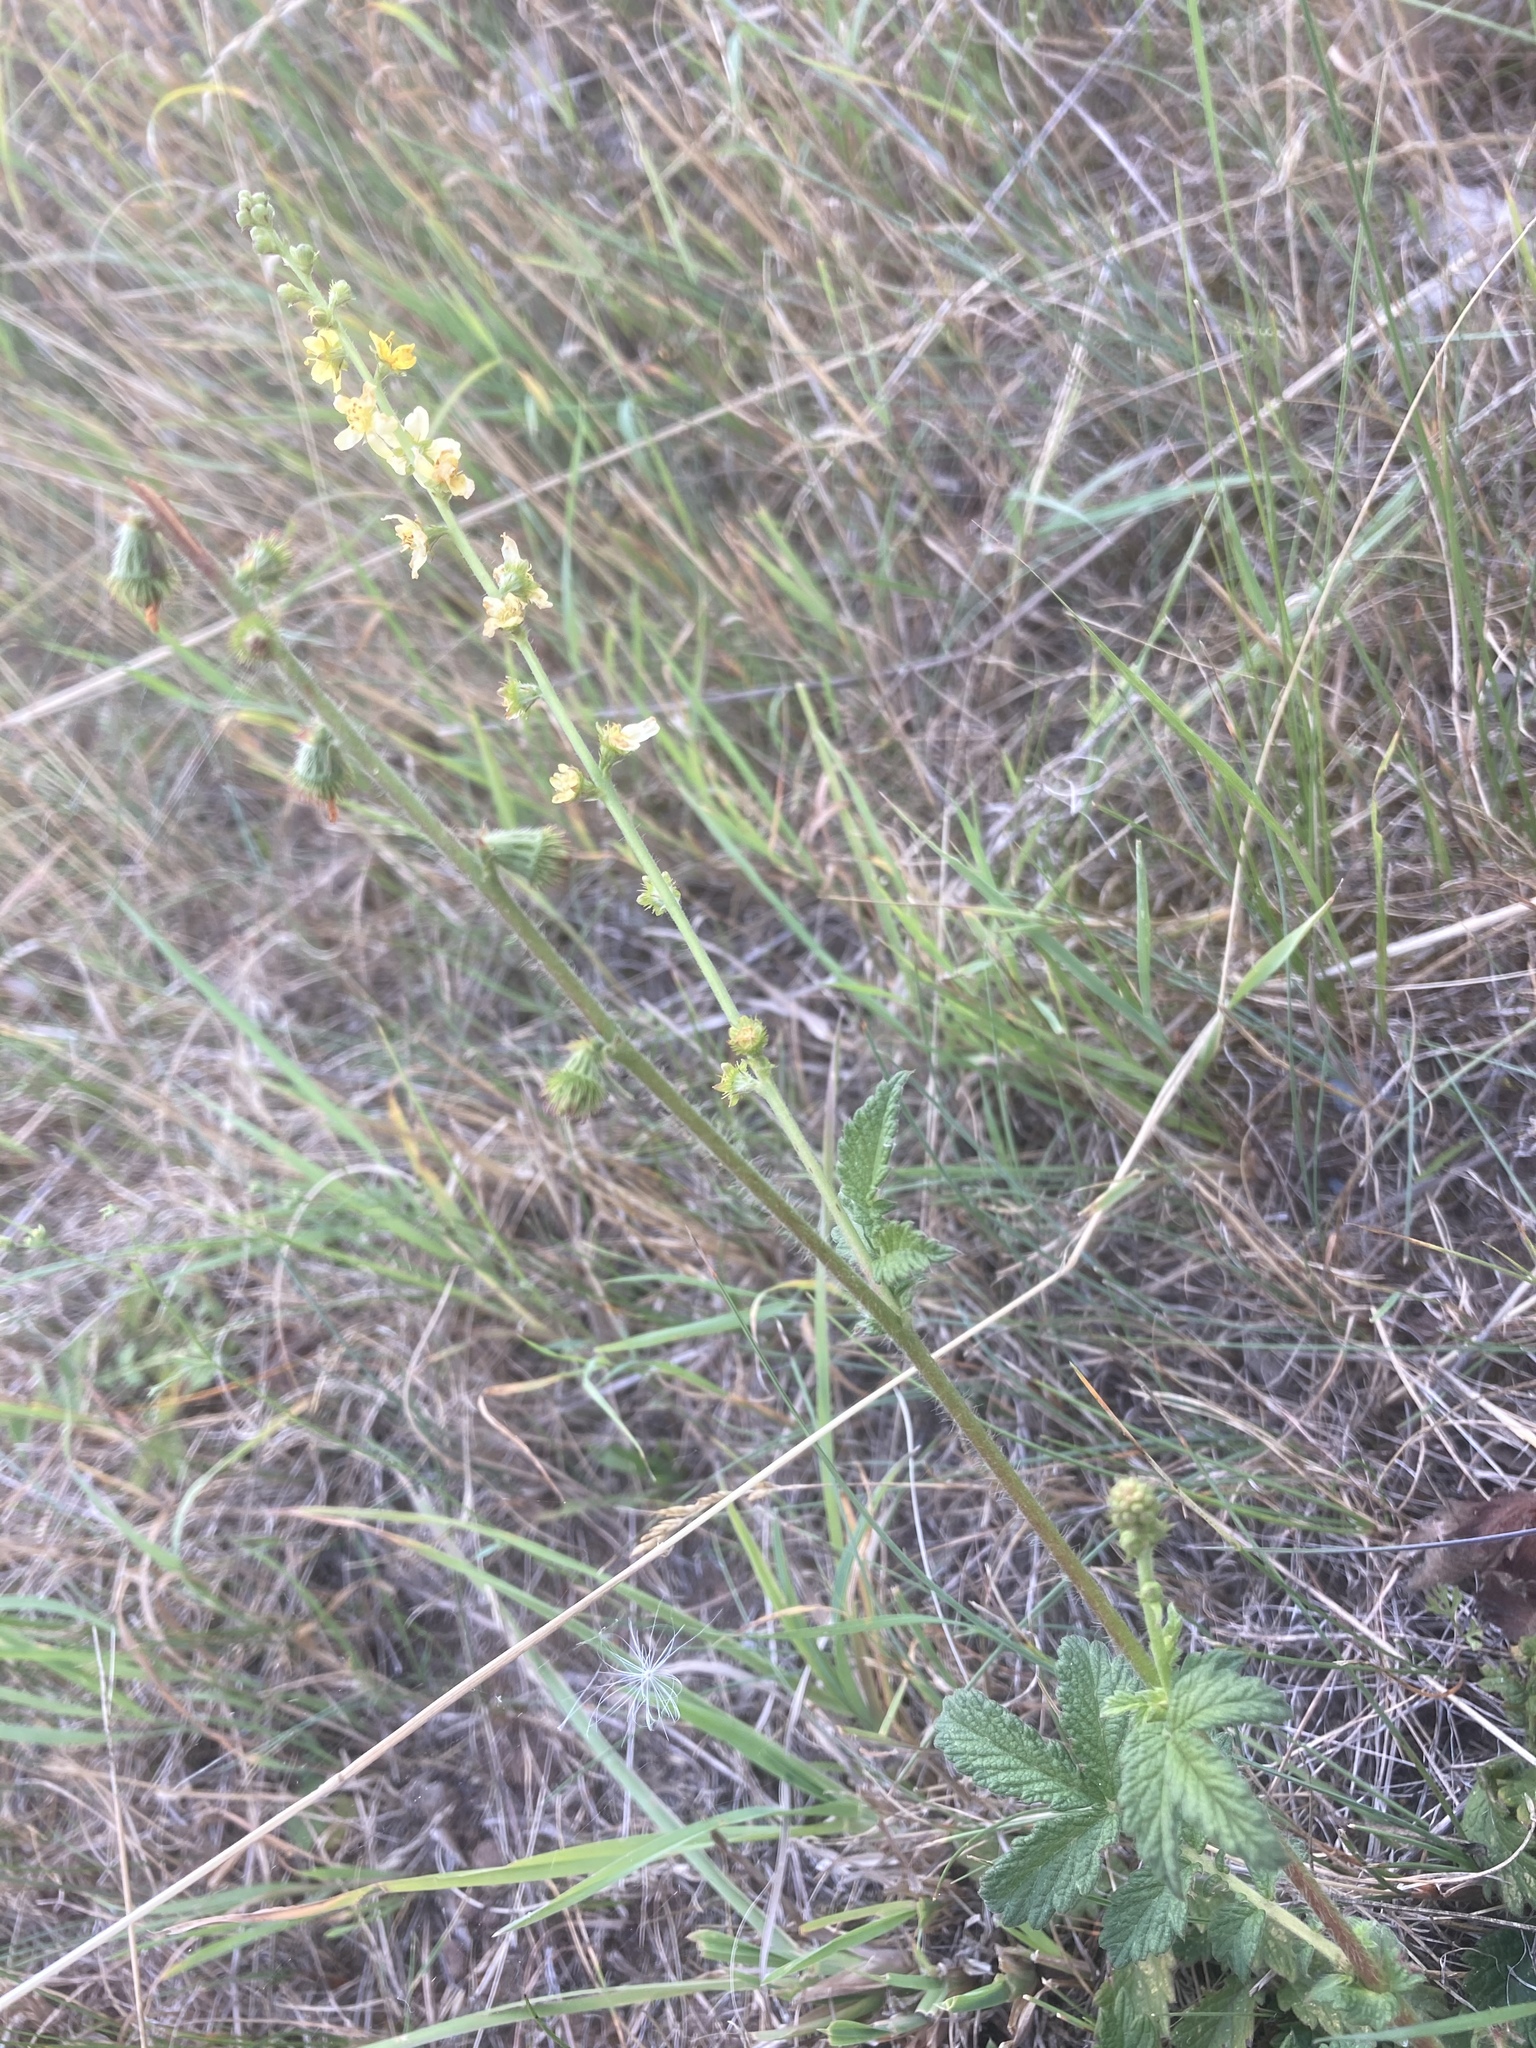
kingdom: Plantae
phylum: Tracheophyta
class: Magnoliopsida
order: Rosales
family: Rosaceae
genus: Agrimonia
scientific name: Agrimonia eupatoria
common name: Agrimony
